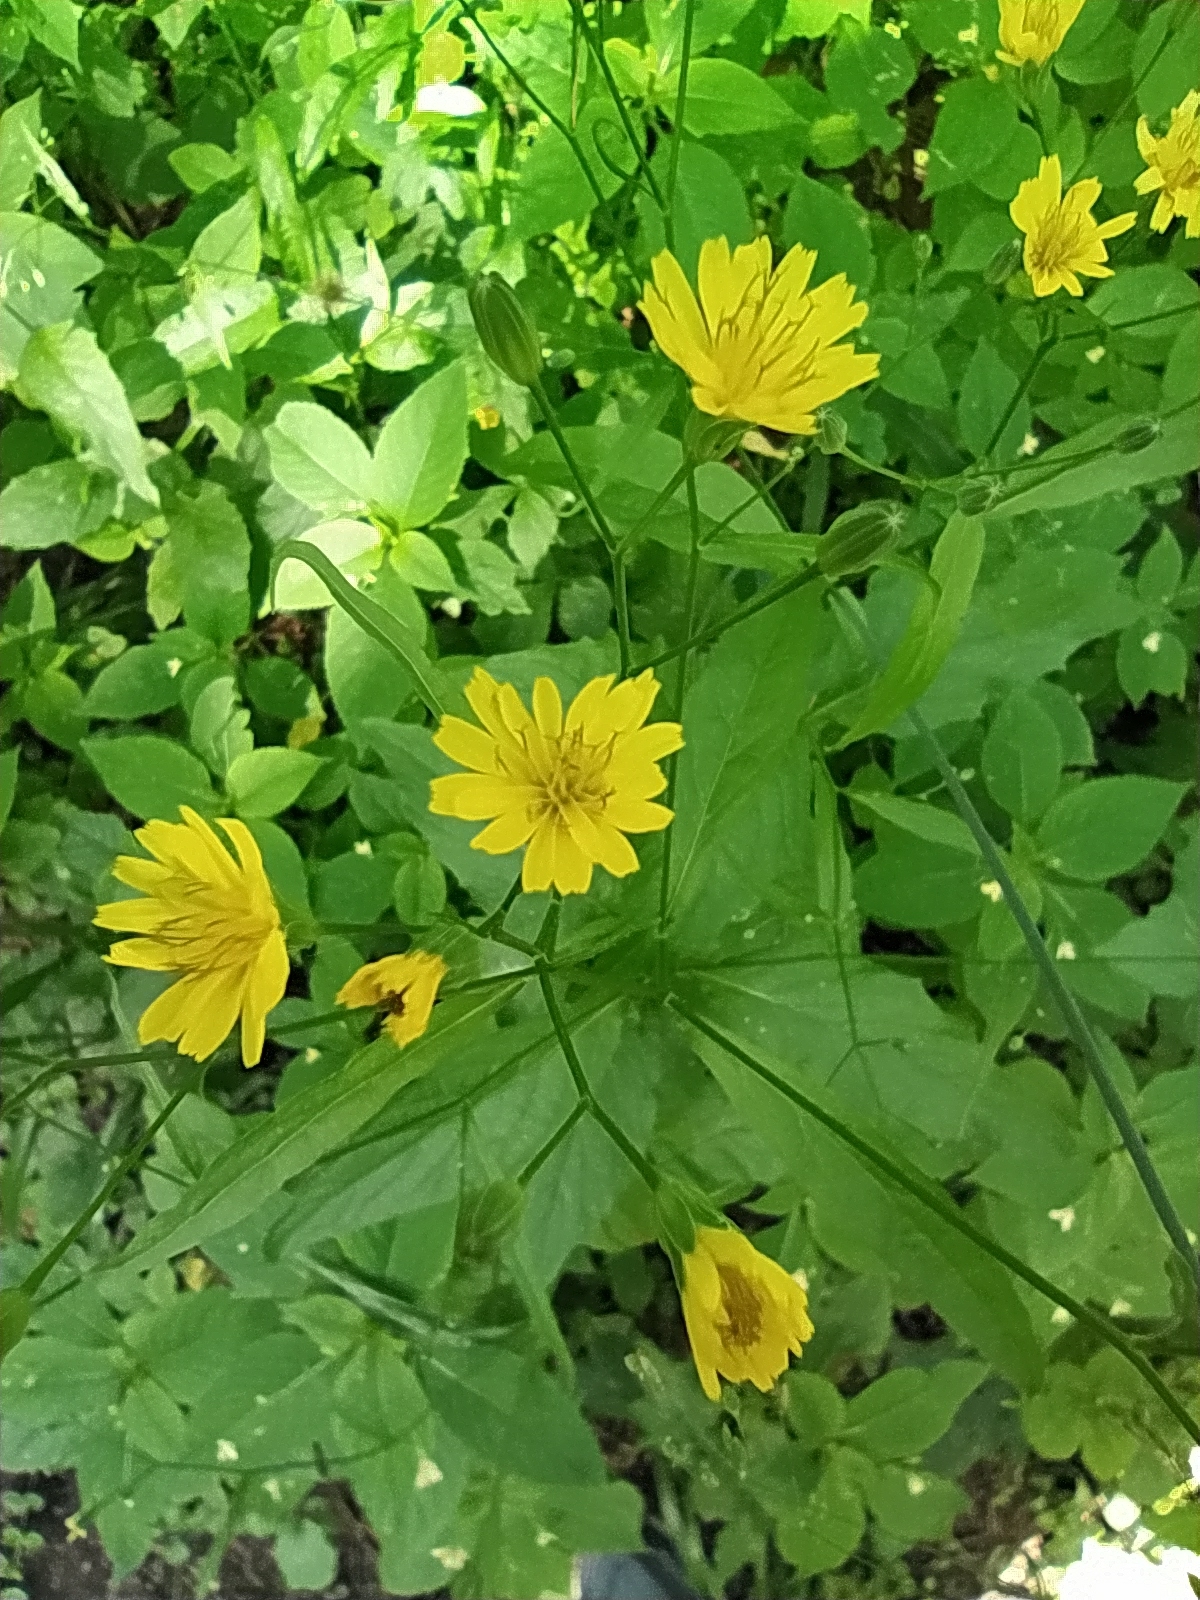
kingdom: Plantae
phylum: Tracheophyta
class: Magnoliopsida
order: Asterales
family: Asteraceae
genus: Lapsana
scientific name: Lapsana communis
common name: Nipplewort
